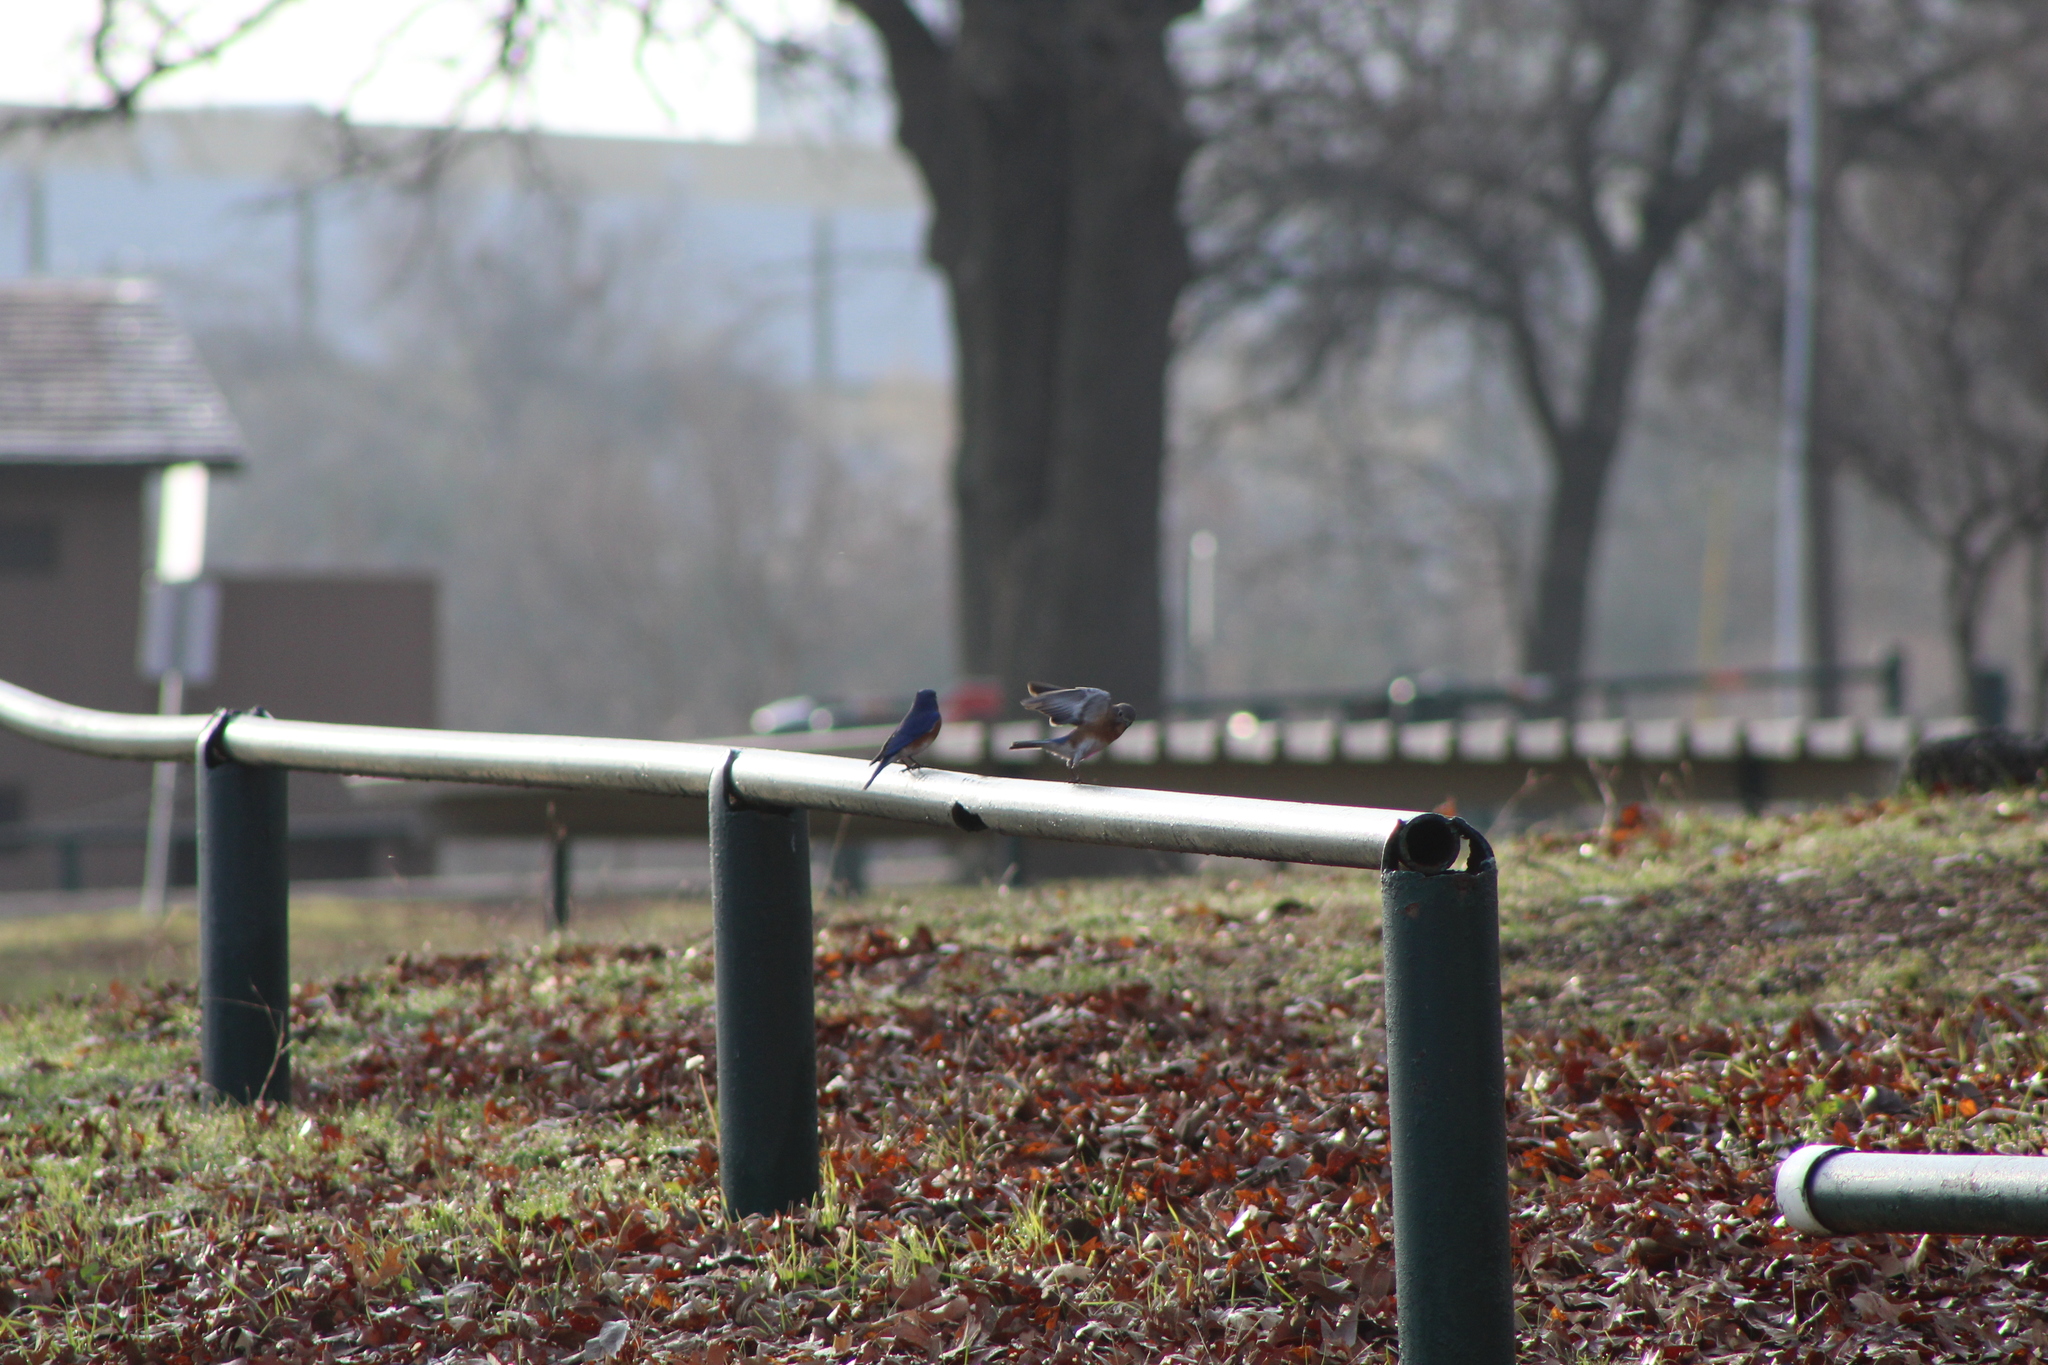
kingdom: Animalia
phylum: Chordata
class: Aves
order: Passeriformes
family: Turdidae
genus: Sialia
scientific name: Sialia sialis
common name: Eastern bluebird
